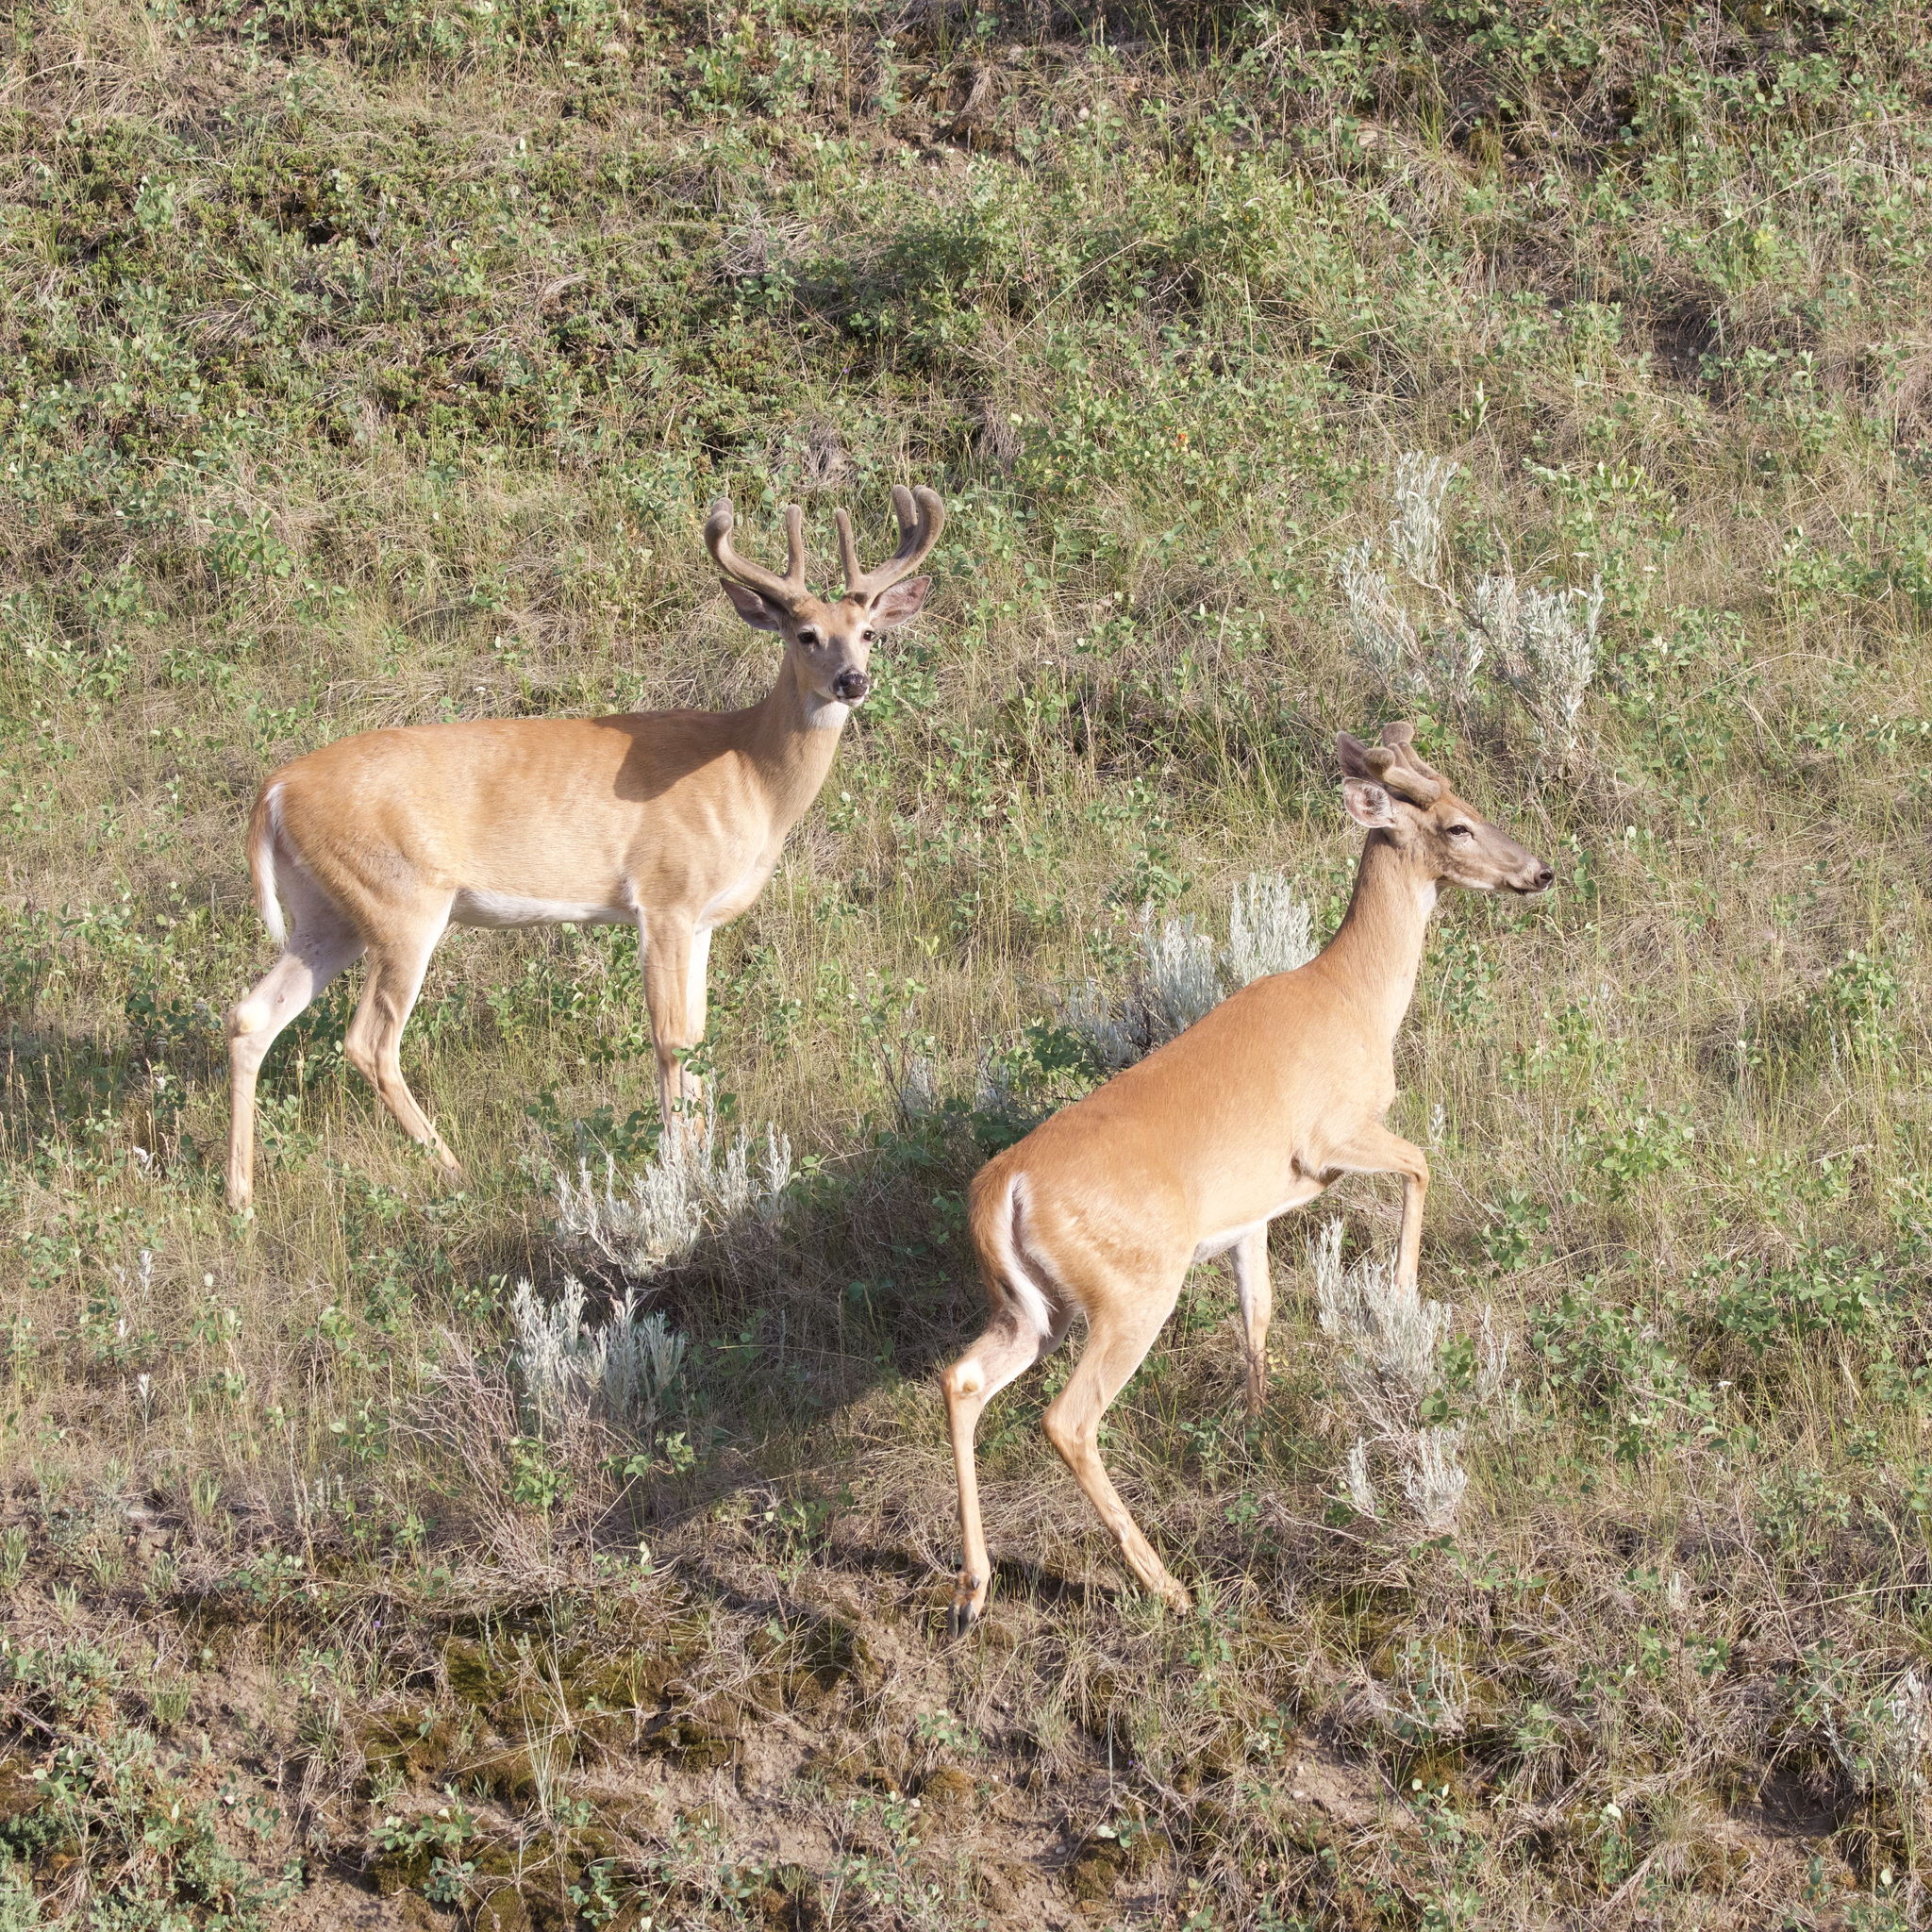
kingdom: Animalia
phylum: Chordata
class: Mammalia
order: Artiodactyla
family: Cervidae
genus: Odocoileus
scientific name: Odocoileus virginianus
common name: White-tailed deer
